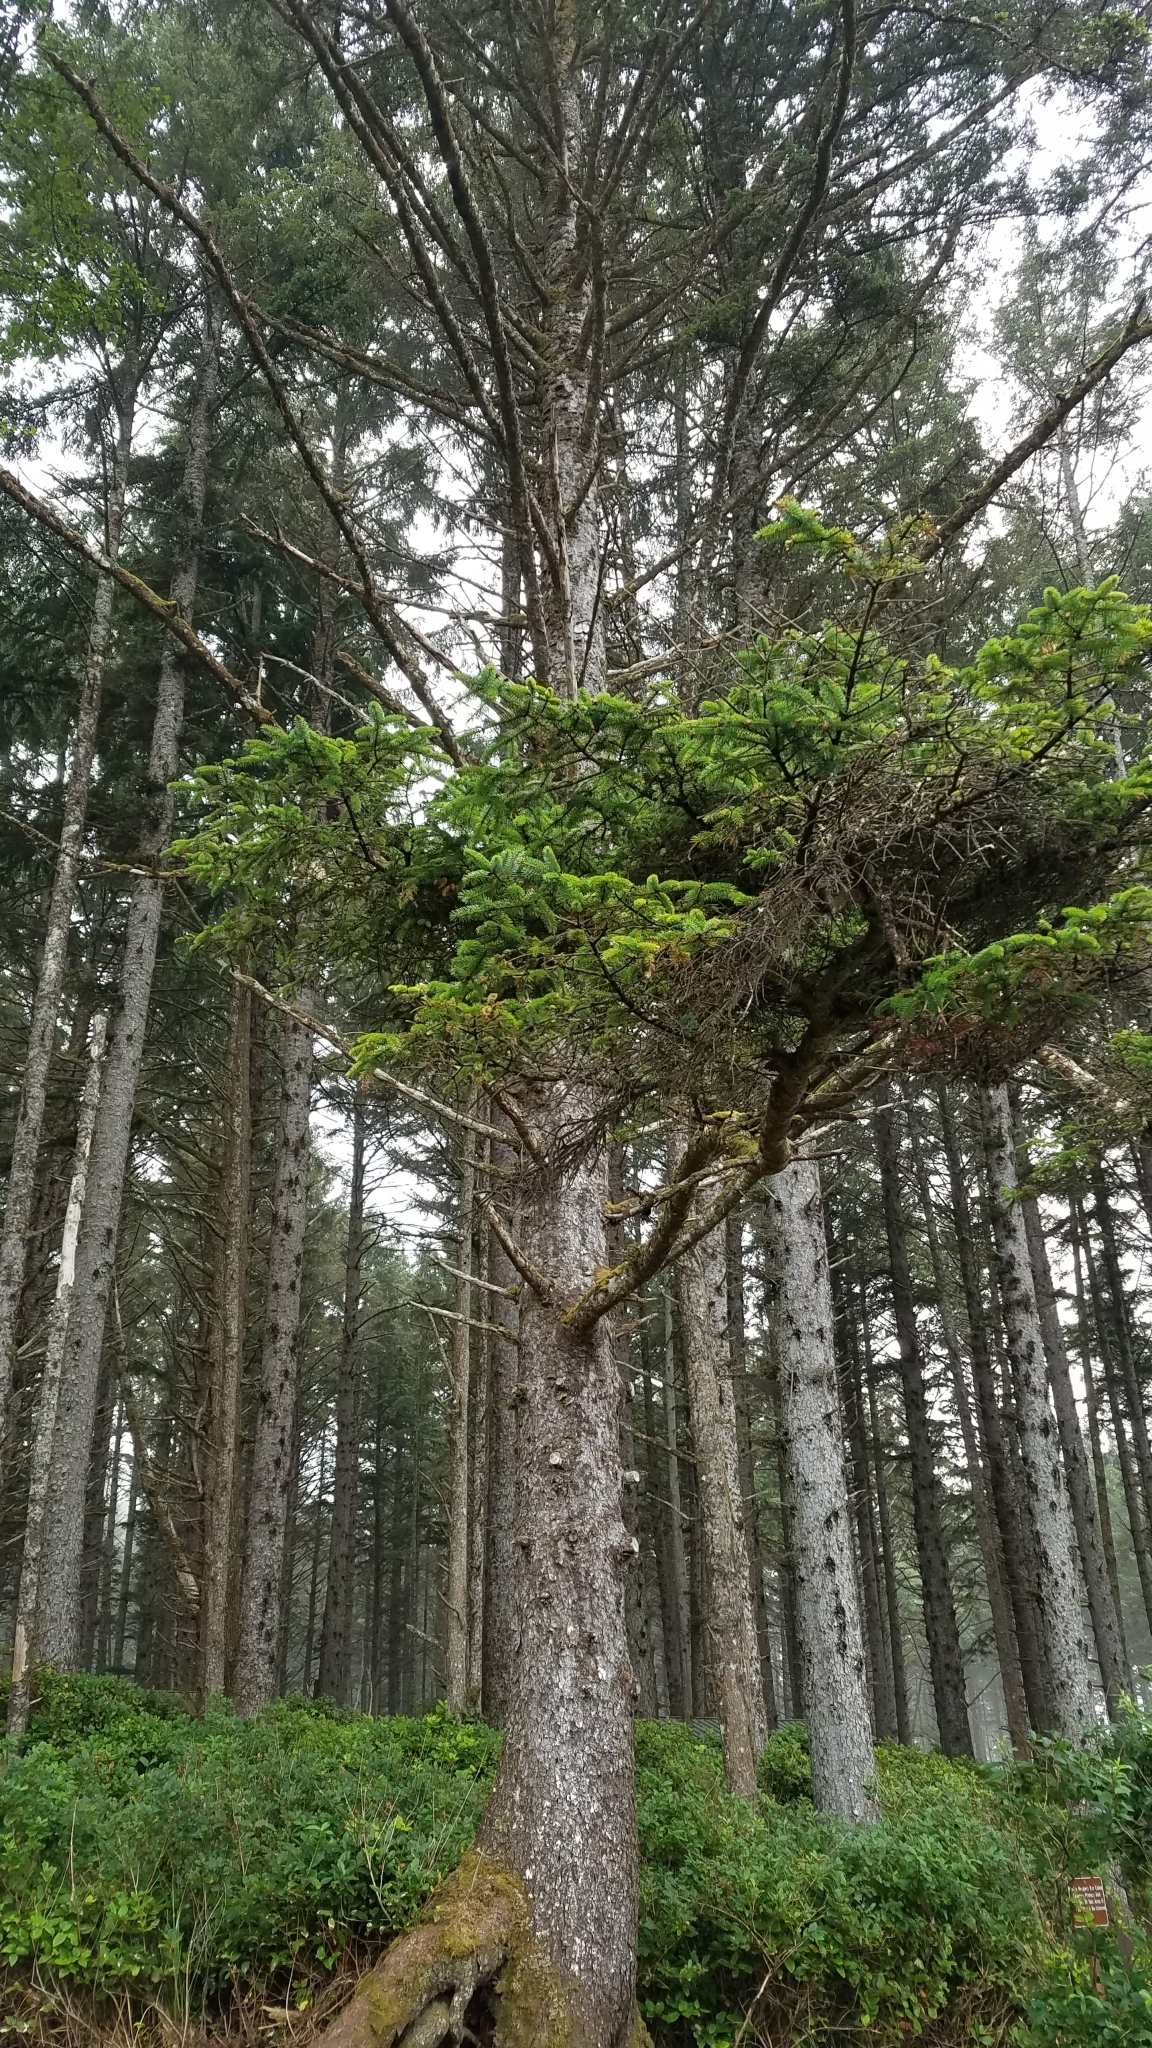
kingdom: Plantae
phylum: Tracheophyta
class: Pinopsida
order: Pinales
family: Pinaceae
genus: Picea
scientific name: Picea sitchensis
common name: Sitka spruce
